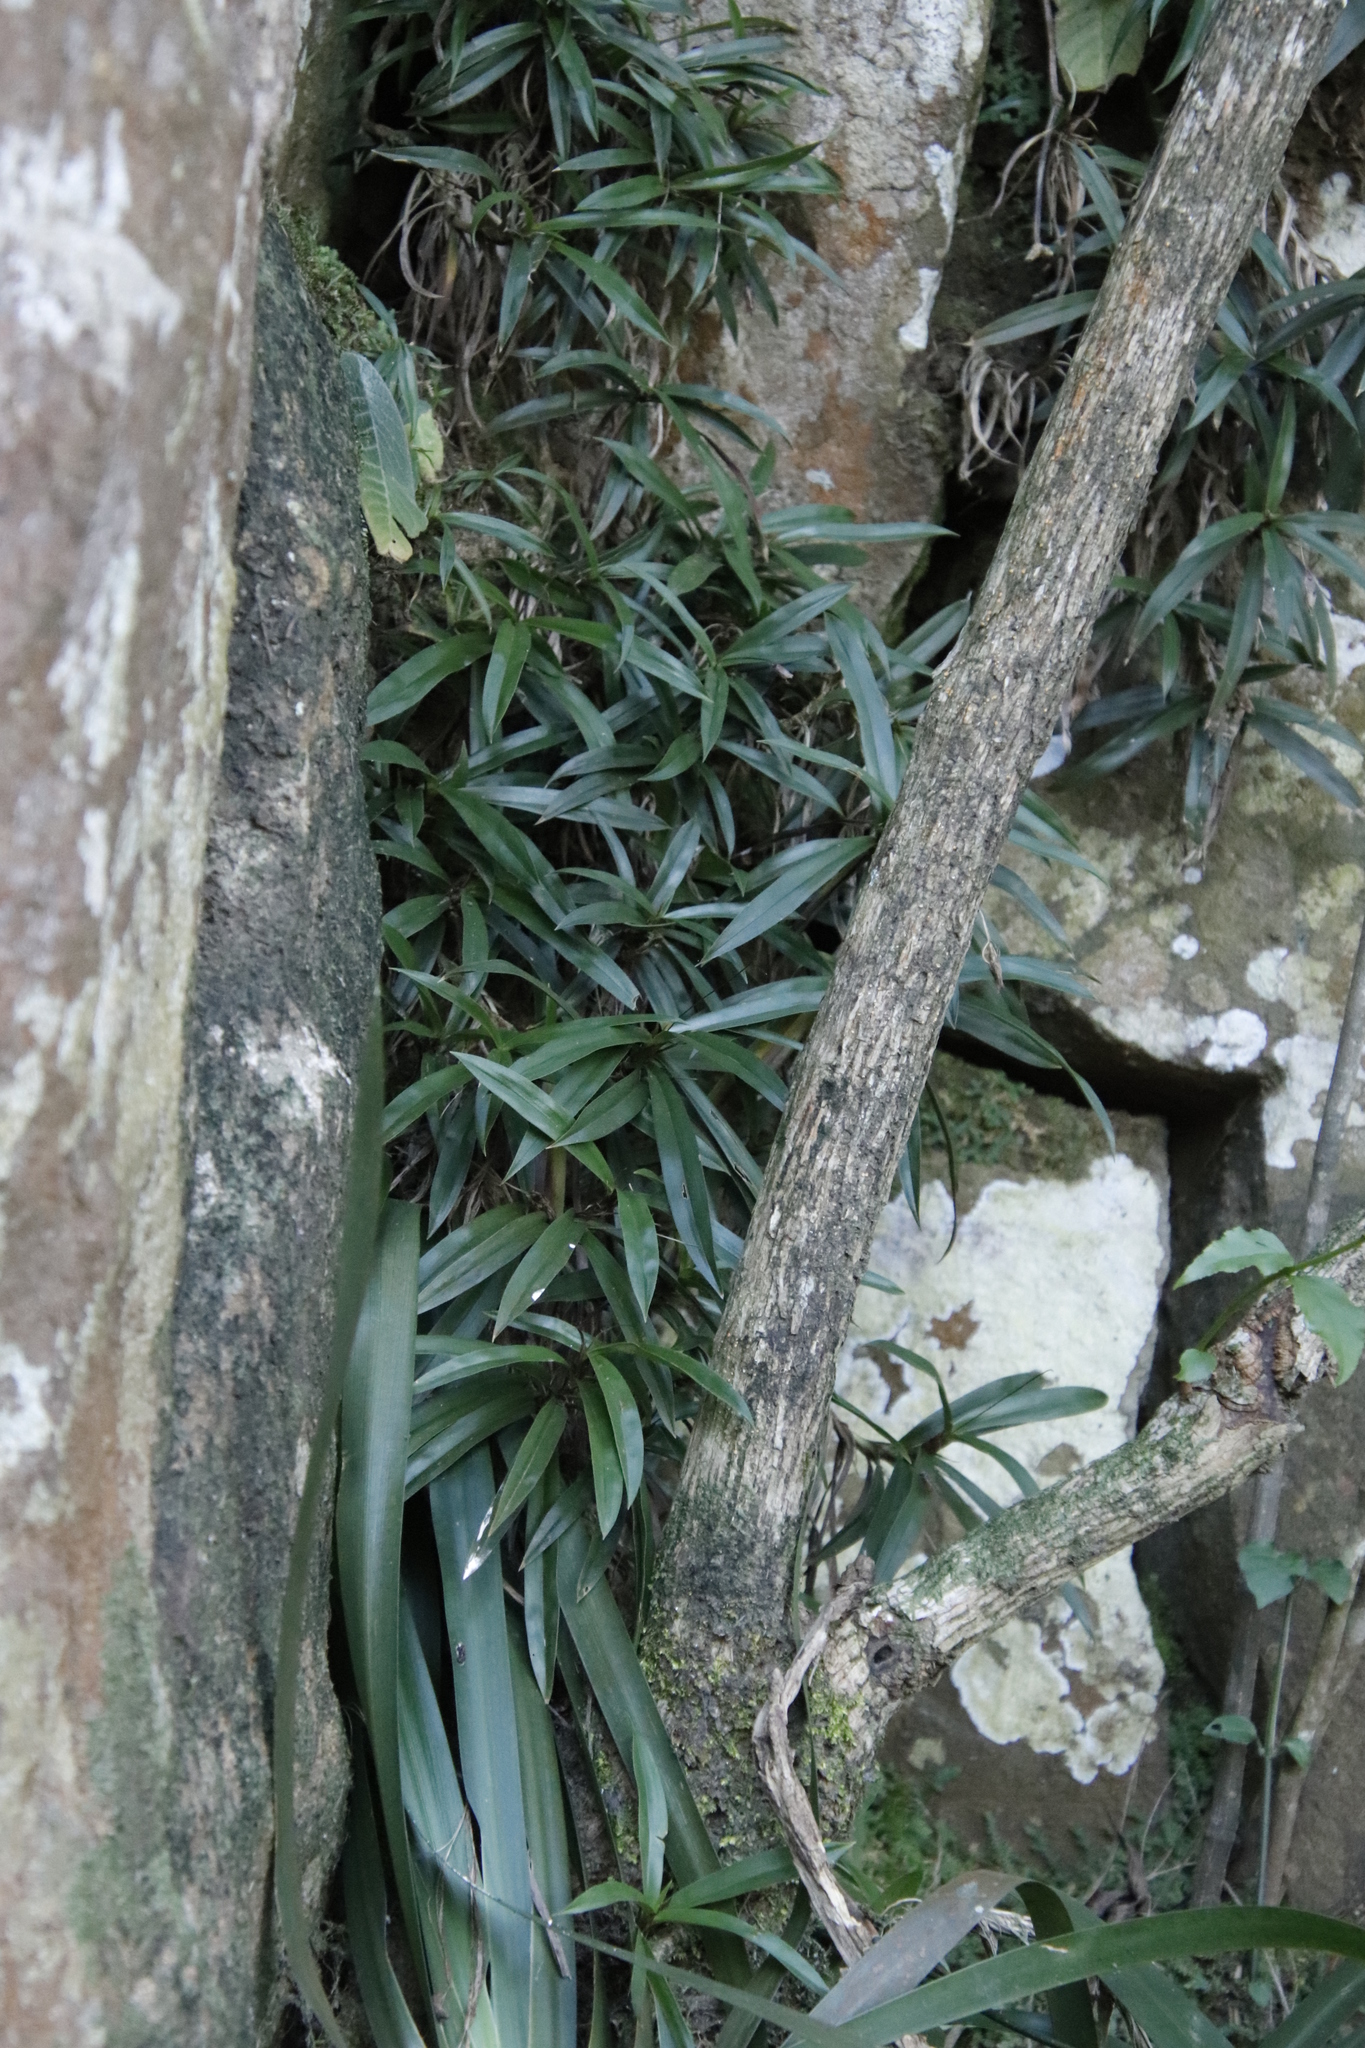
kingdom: Plantae
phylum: Tracheophyta
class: Liliopsida
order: Pandanales
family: Velloziaceae
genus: Xerophyta
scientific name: Xerophyta elegans
